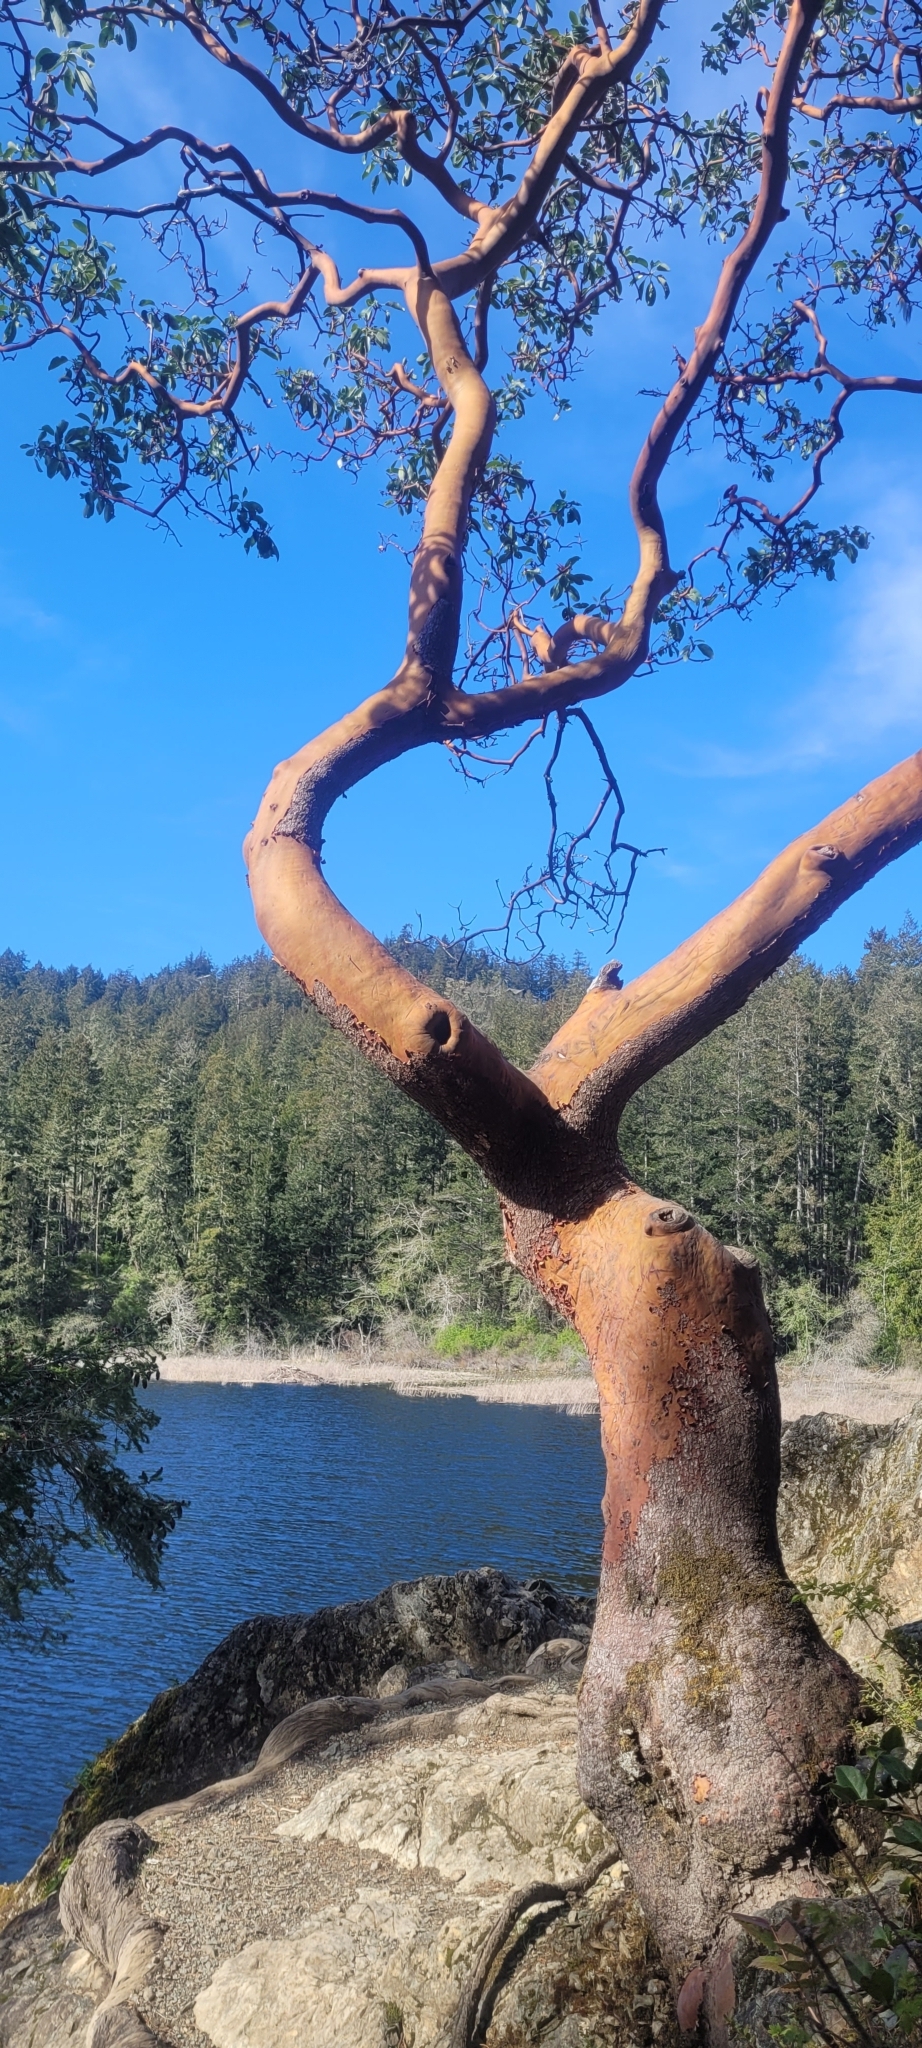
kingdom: Plantae
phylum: Tracheophyta
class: Magnoliopsida
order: Ericales
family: Ericaceae
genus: Arbutus
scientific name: Arbutus menziesii
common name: Pacific madrone
